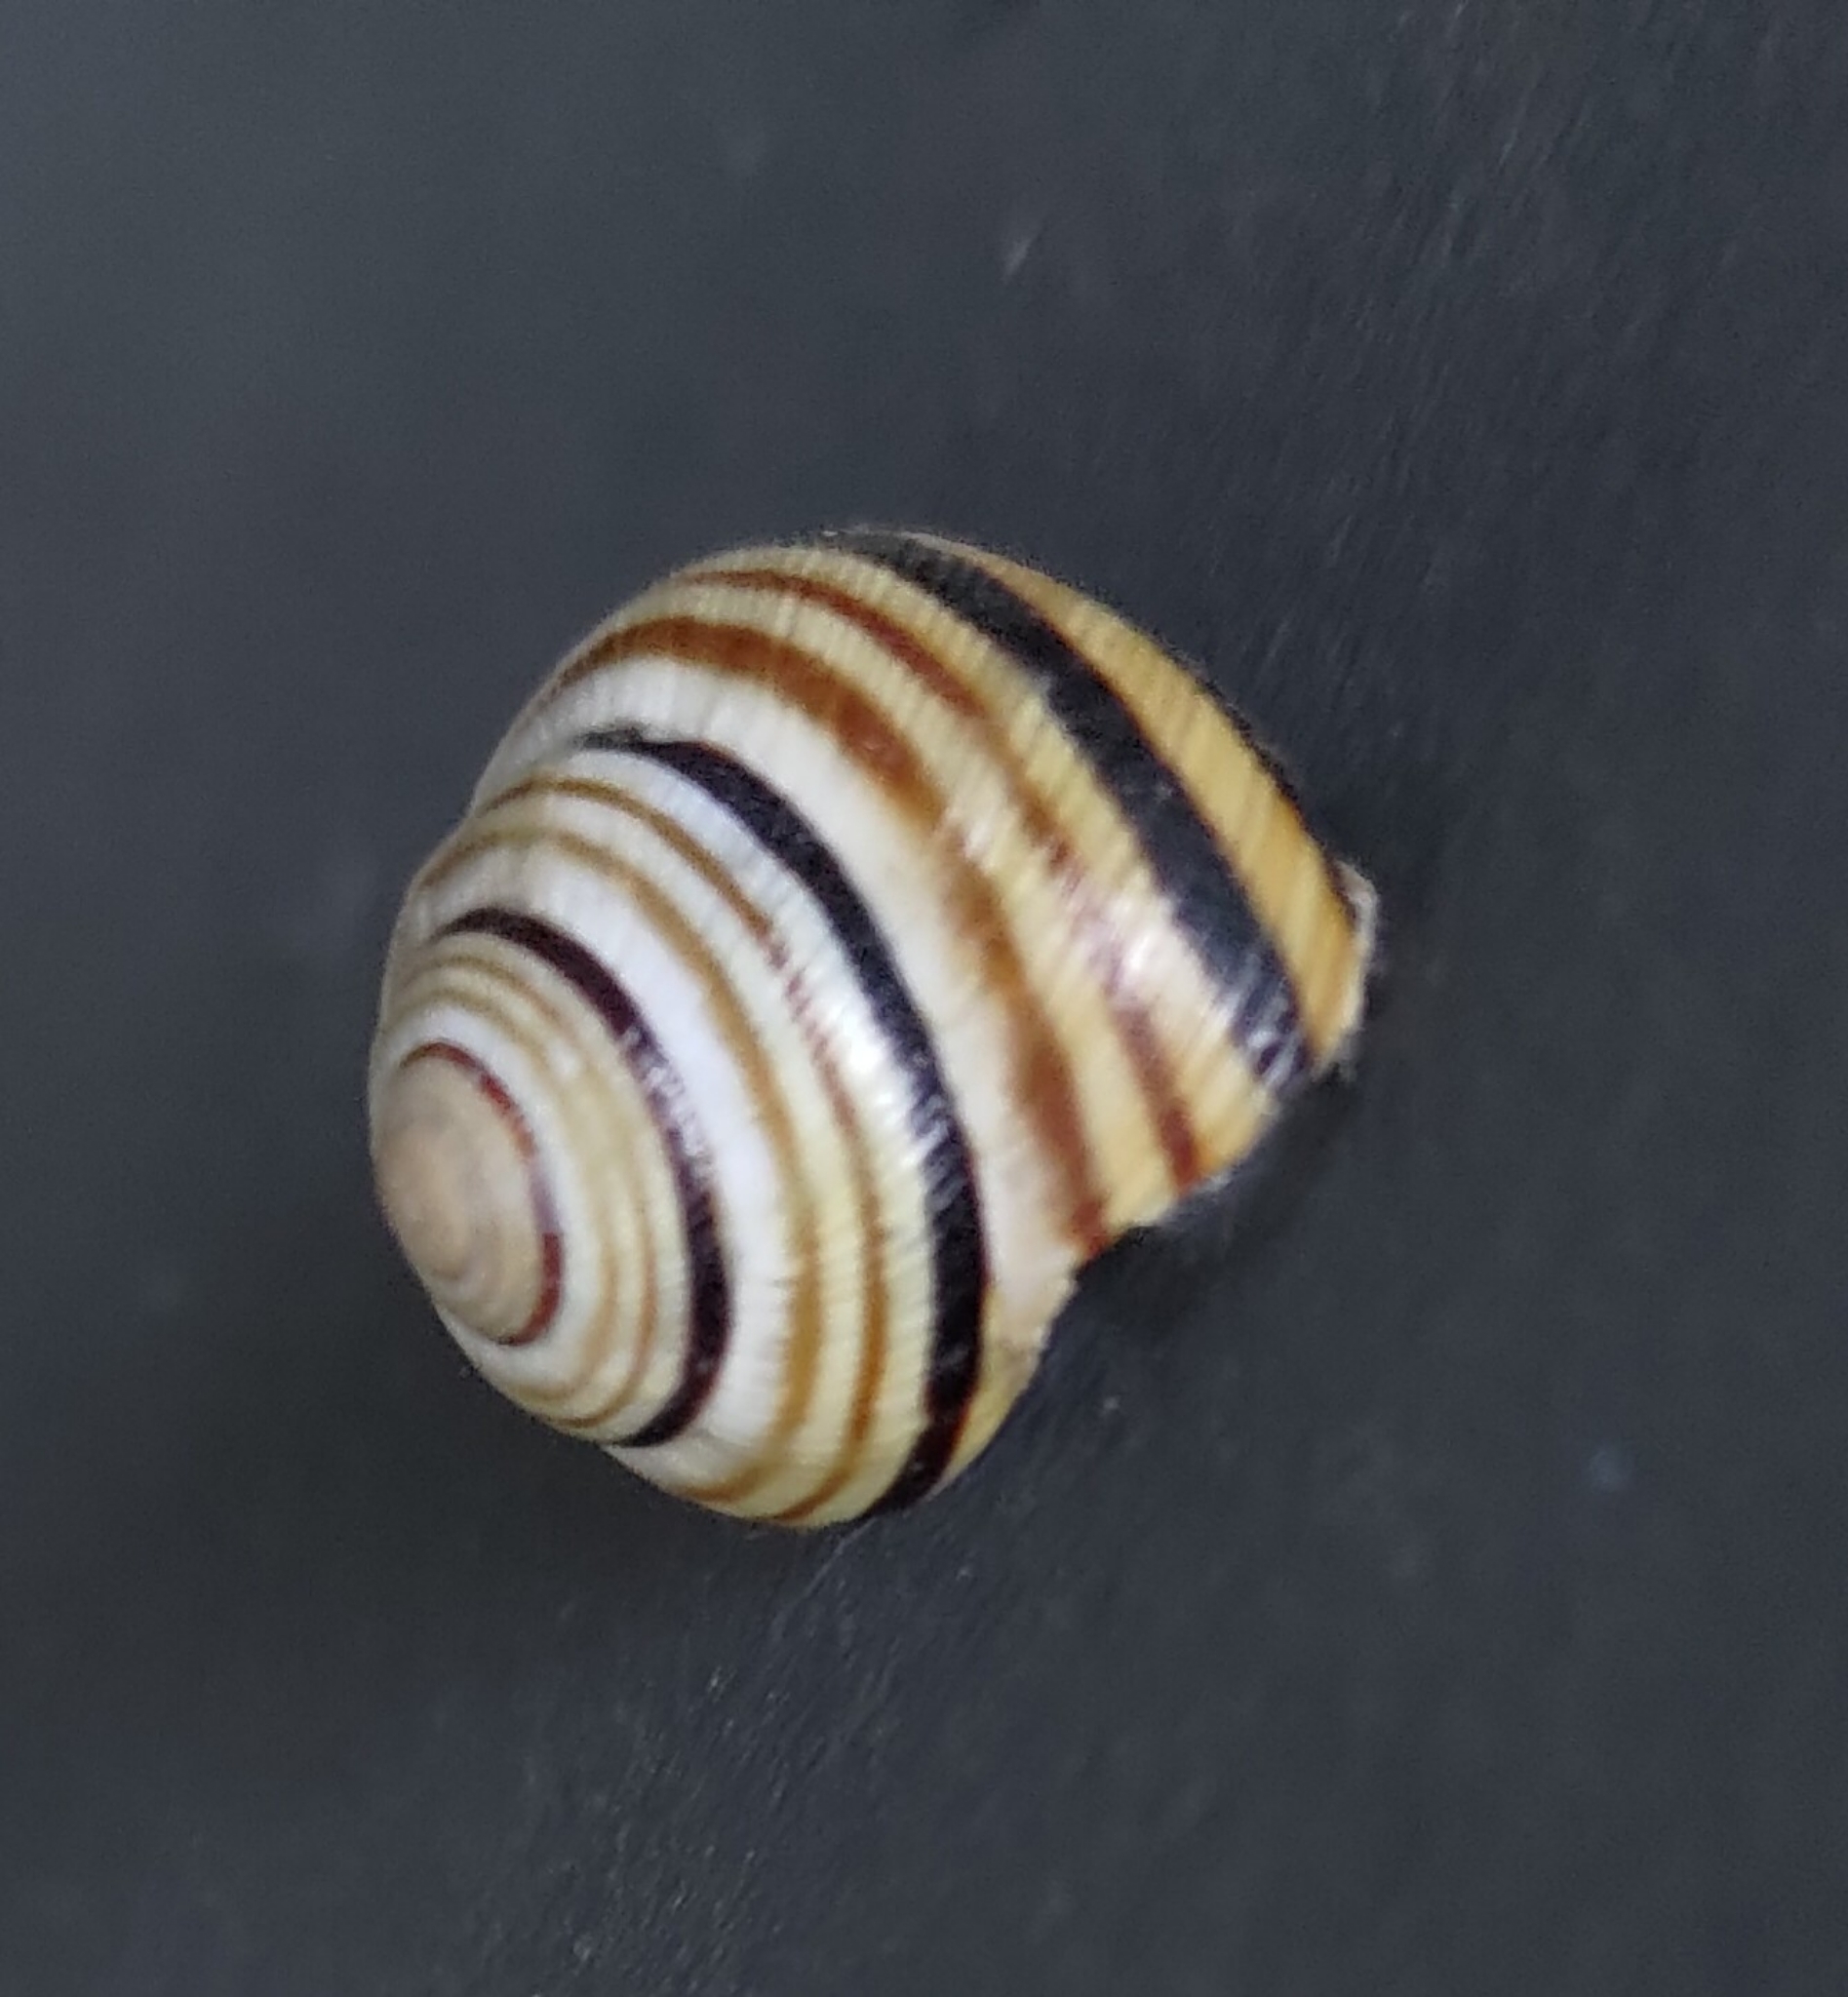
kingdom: Animalia
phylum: Mollusca
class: Gastropoda
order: Stylommatophora
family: Helicidae
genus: Caucasotachea
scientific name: Caucasotachea vindobonensis
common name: European helicid land snail
